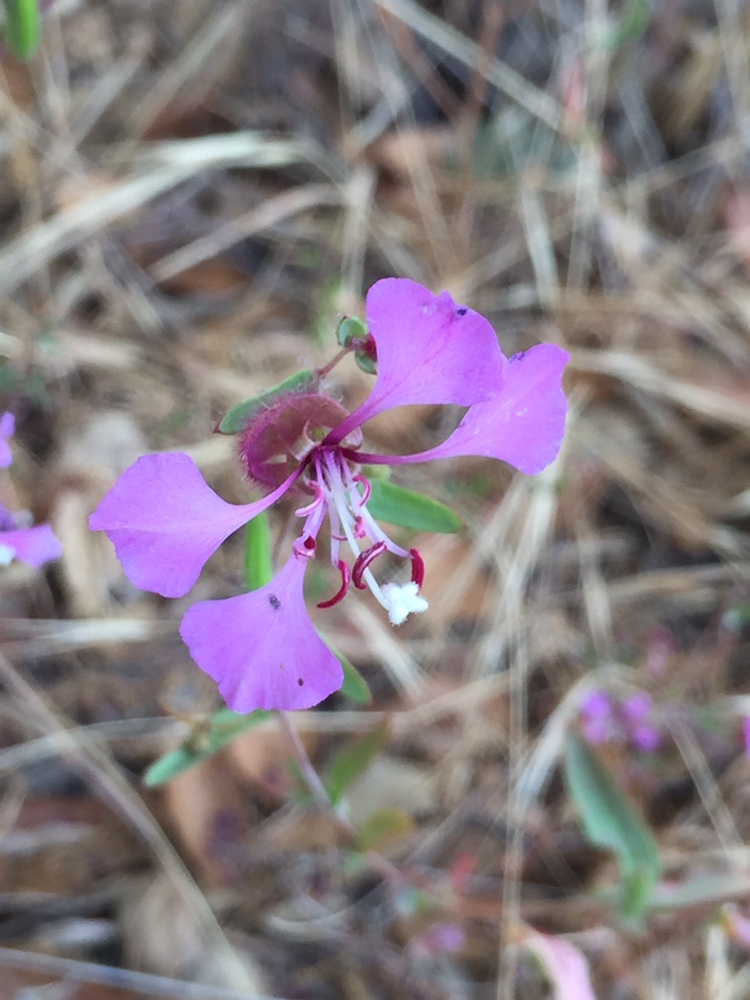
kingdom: Plantae
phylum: Tracheophyta
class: Magnoliopsida
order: Myrtales
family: Onagraceae
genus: Clarkia
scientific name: Clarkia unguiculata
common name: Clarkia
